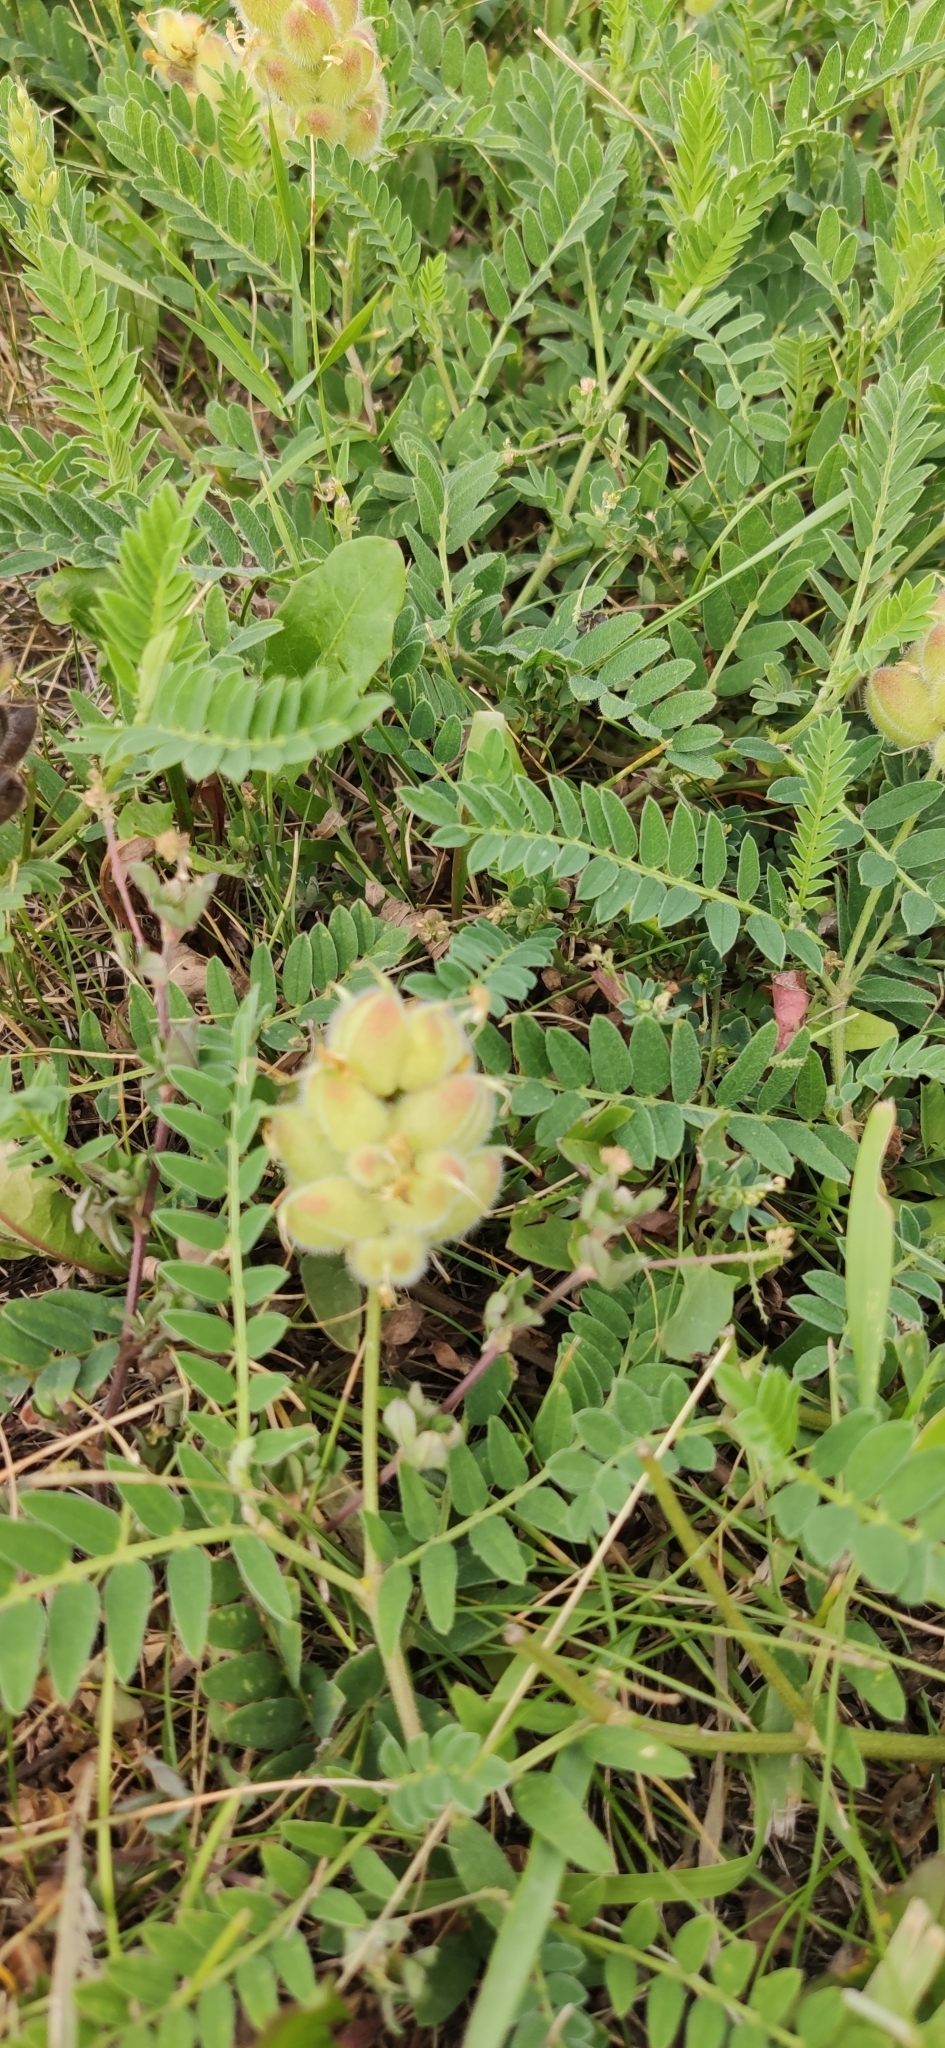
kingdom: Plantae
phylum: Tracheophyta
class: Magnoliopsida
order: Fabales
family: Fabaceae
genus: Astragalus
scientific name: Astragalus cicer
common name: Chick-pea milk-vetch
